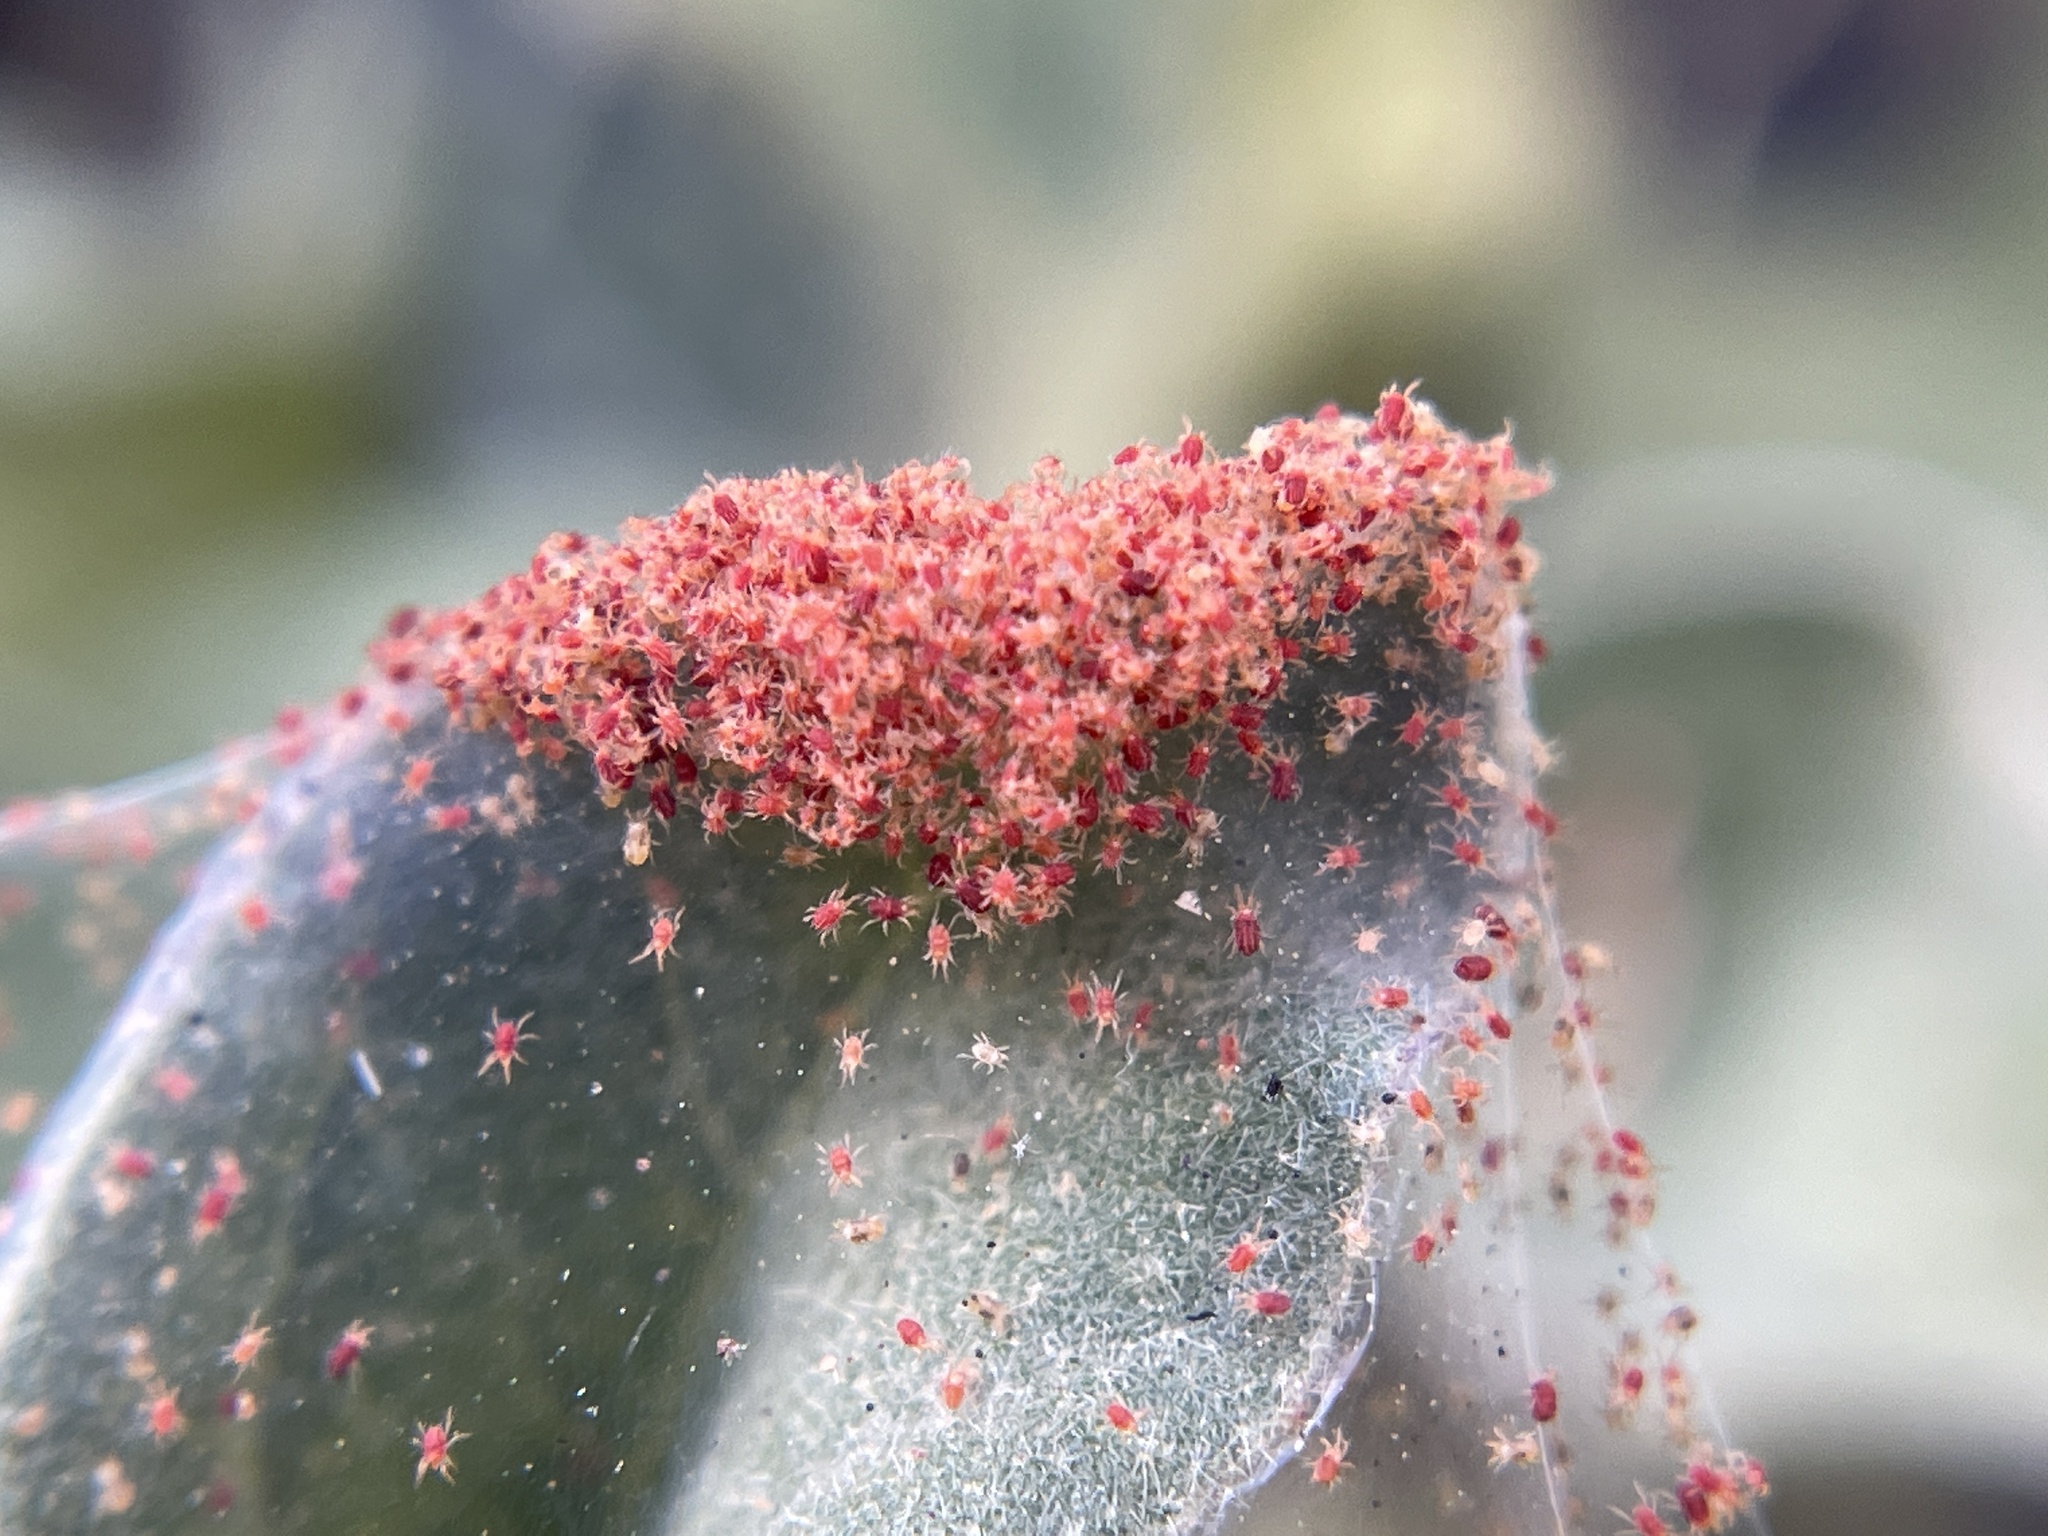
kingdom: Animalia
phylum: Arthropoda
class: Arachnida
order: Trombidiformes
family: Tetranychidae
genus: Tetranychus
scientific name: Tetranychus urticae
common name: Carmine spider mite
